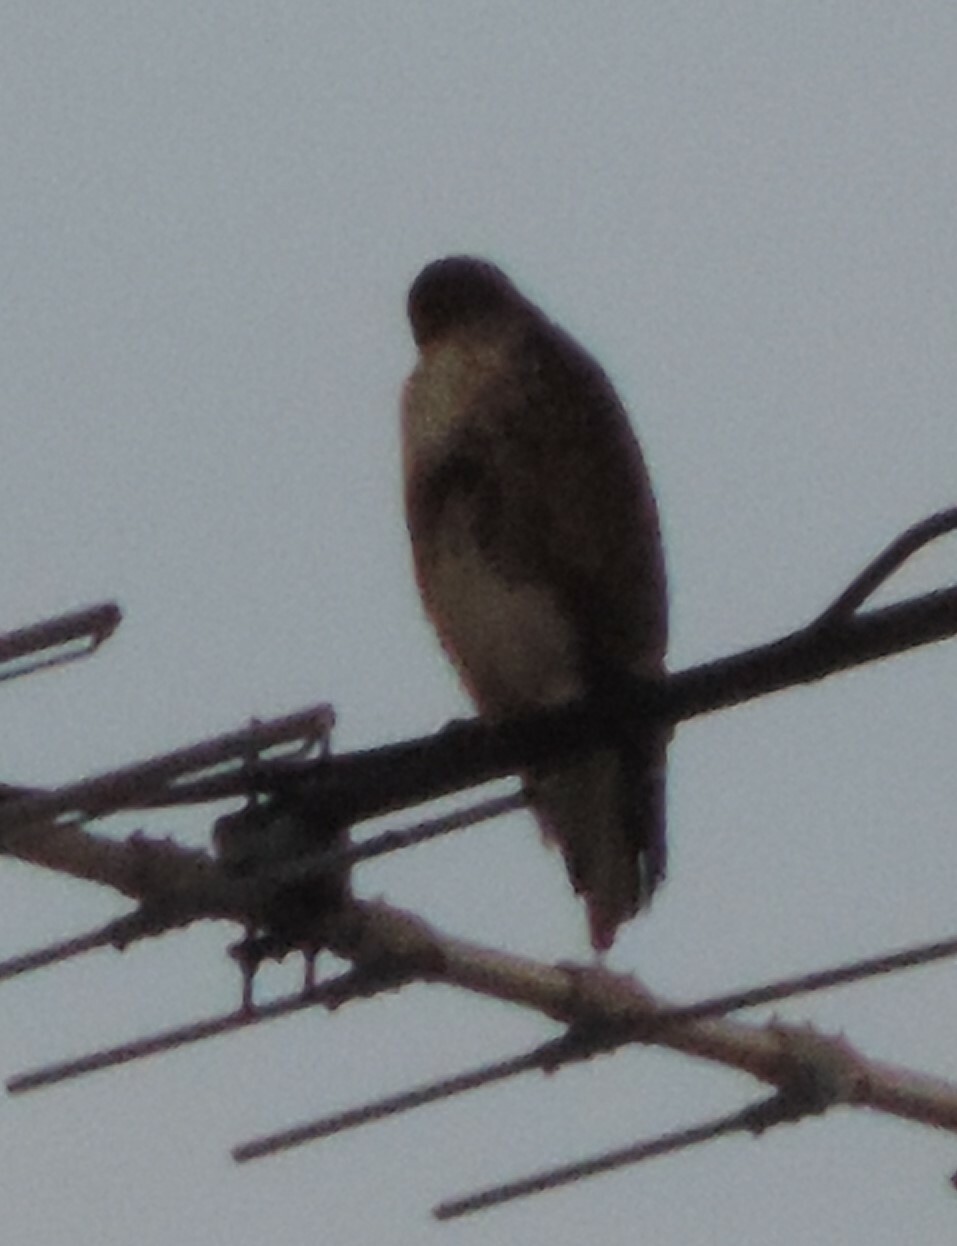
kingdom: Animalia
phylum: Chordata
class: Aves
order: Accipitriformes
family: Accipitridae
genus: Buteo
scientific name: Buteo jamaicensis
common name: Red-tailed hawk
